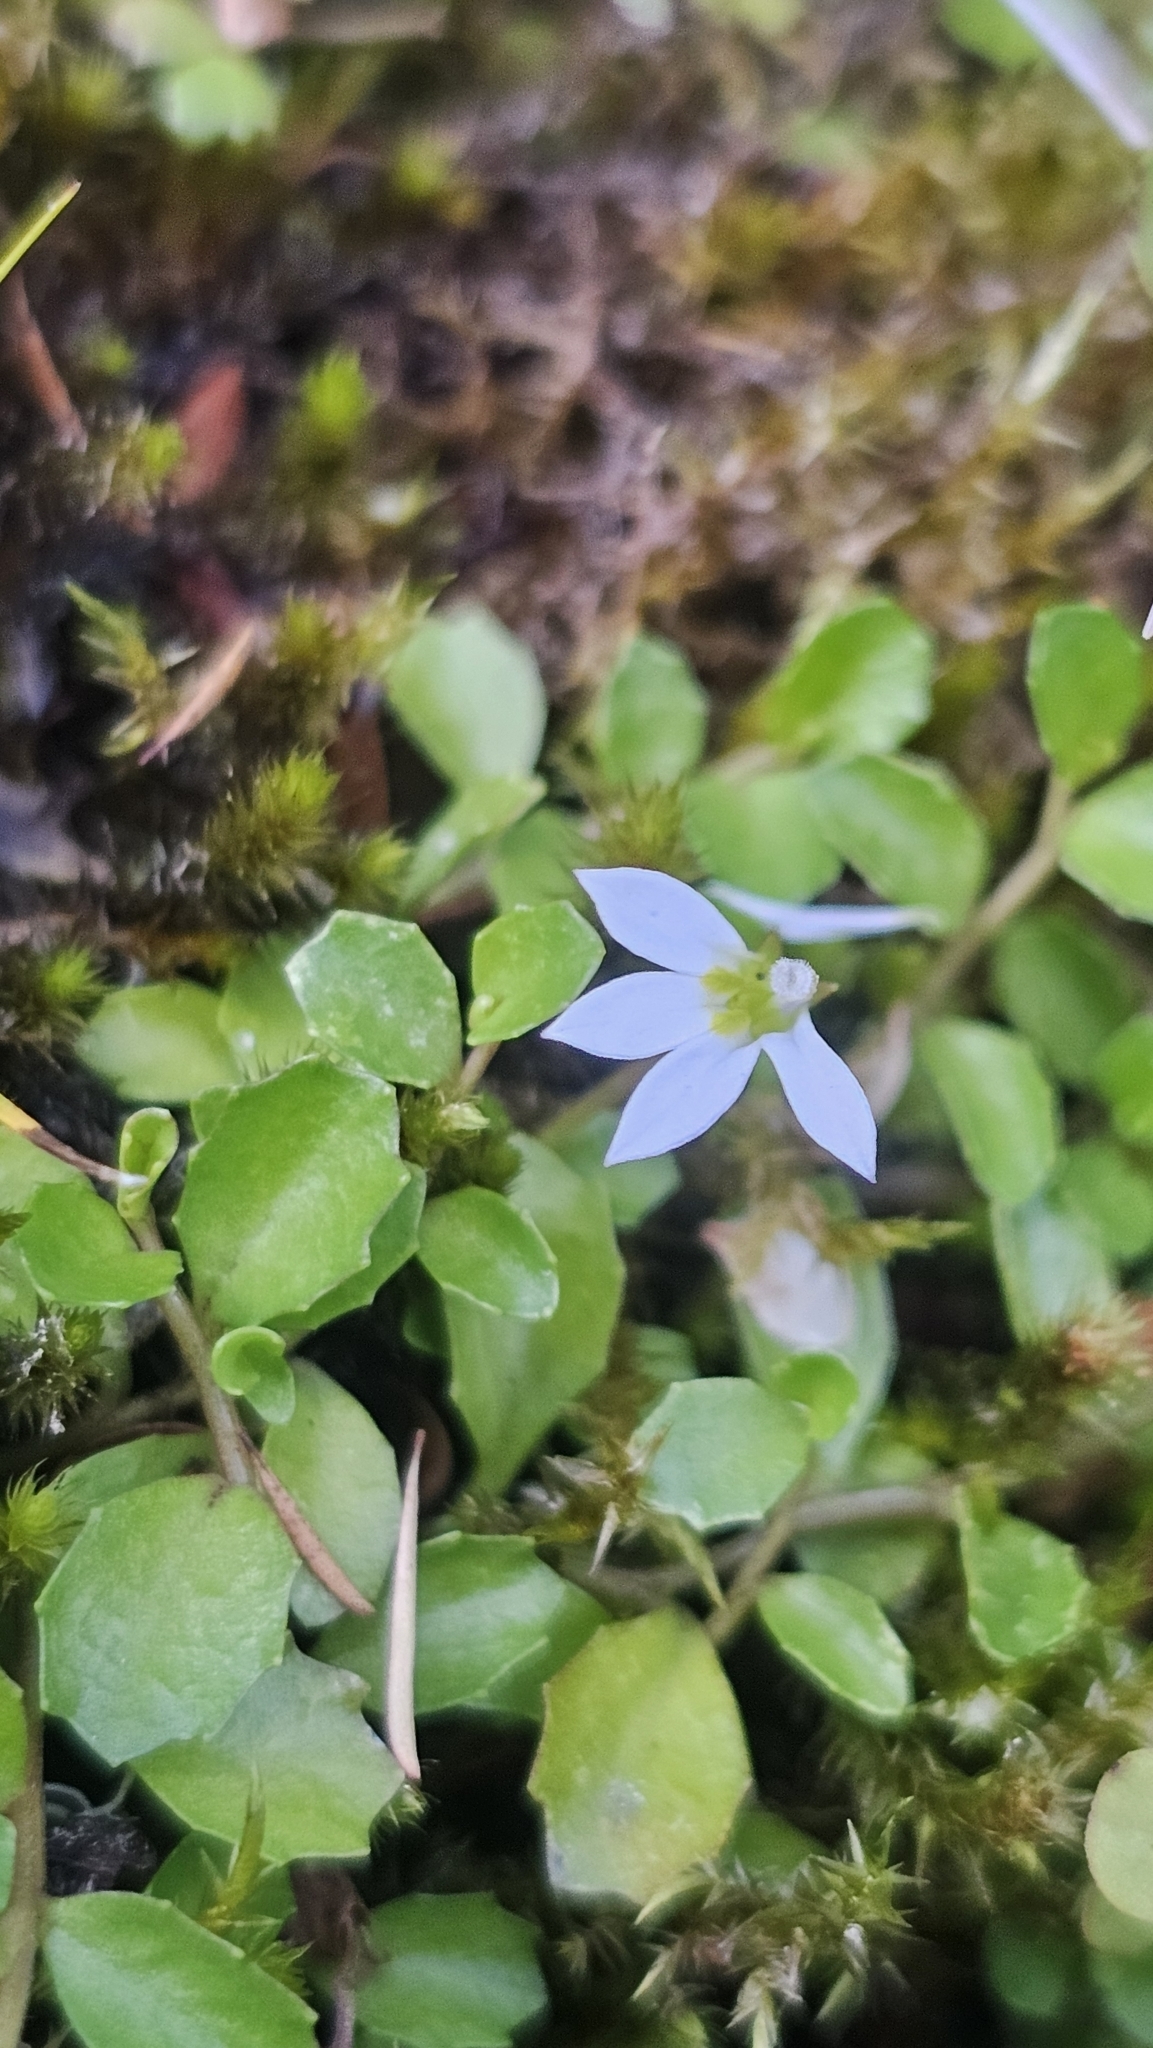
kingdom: Plantae
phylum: Tracheophyta
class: Magnoliopsida
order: Asterales
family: Campanulaceae
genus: Lobelia
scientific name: Lobelia angulata
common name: Lawn lobelia
